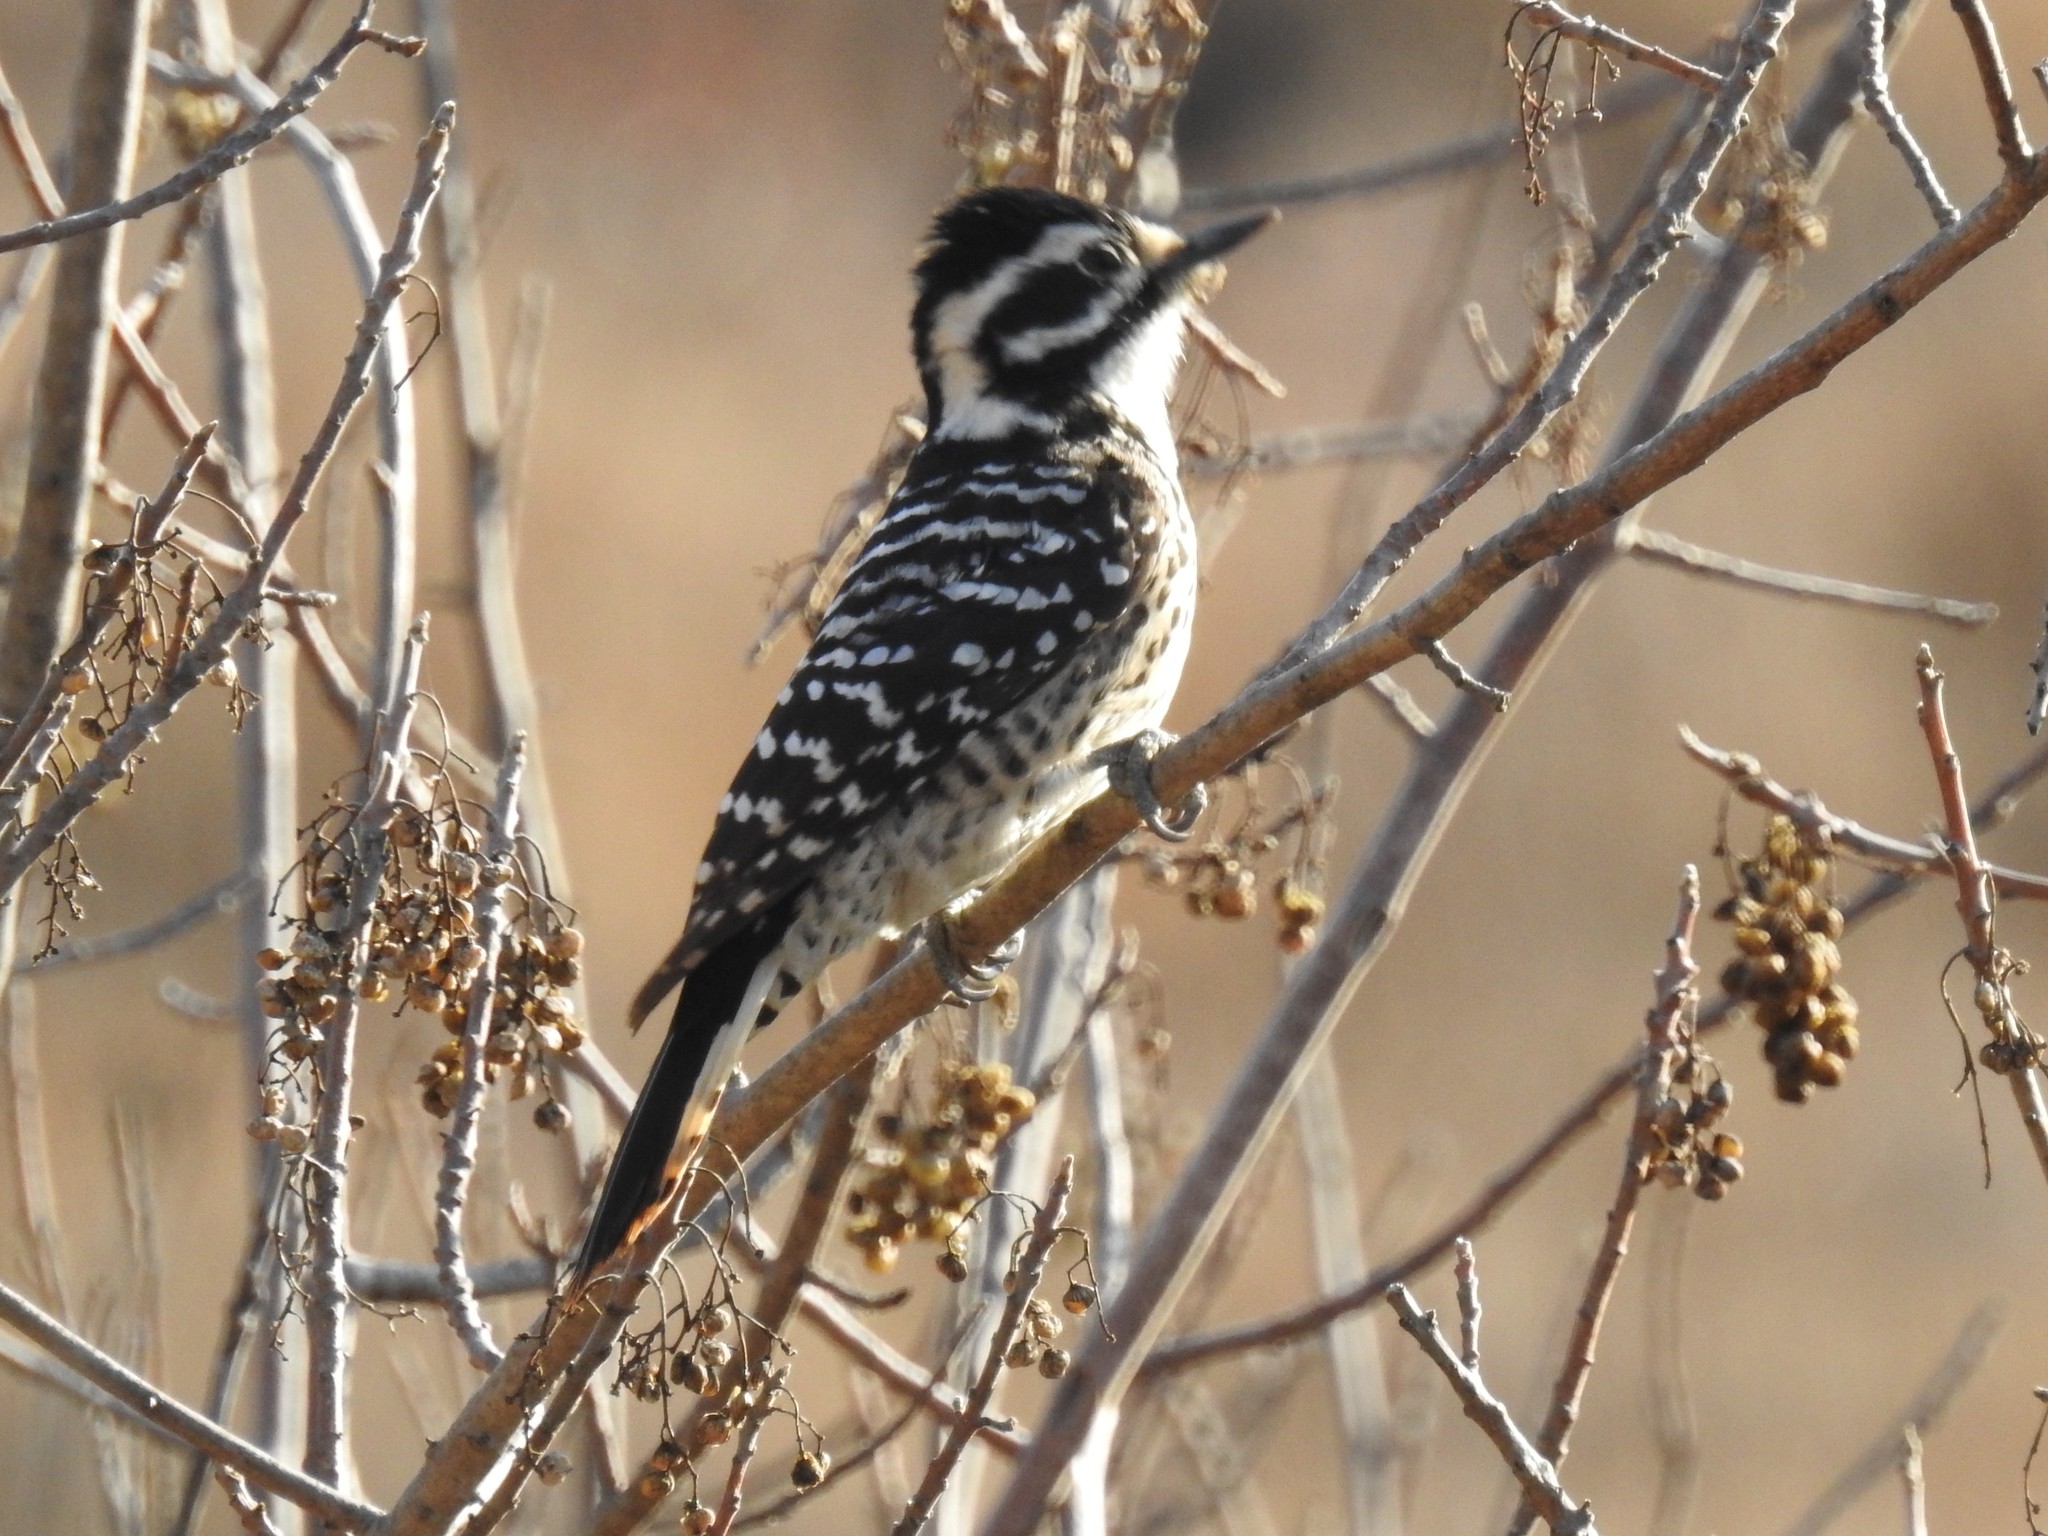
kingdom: Animalia
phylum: Chordata
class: Aves
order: Piciformes
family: Picidae
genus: Dryobates
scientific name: Dryobates nuttallii
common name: Nuttall's woodpecker
